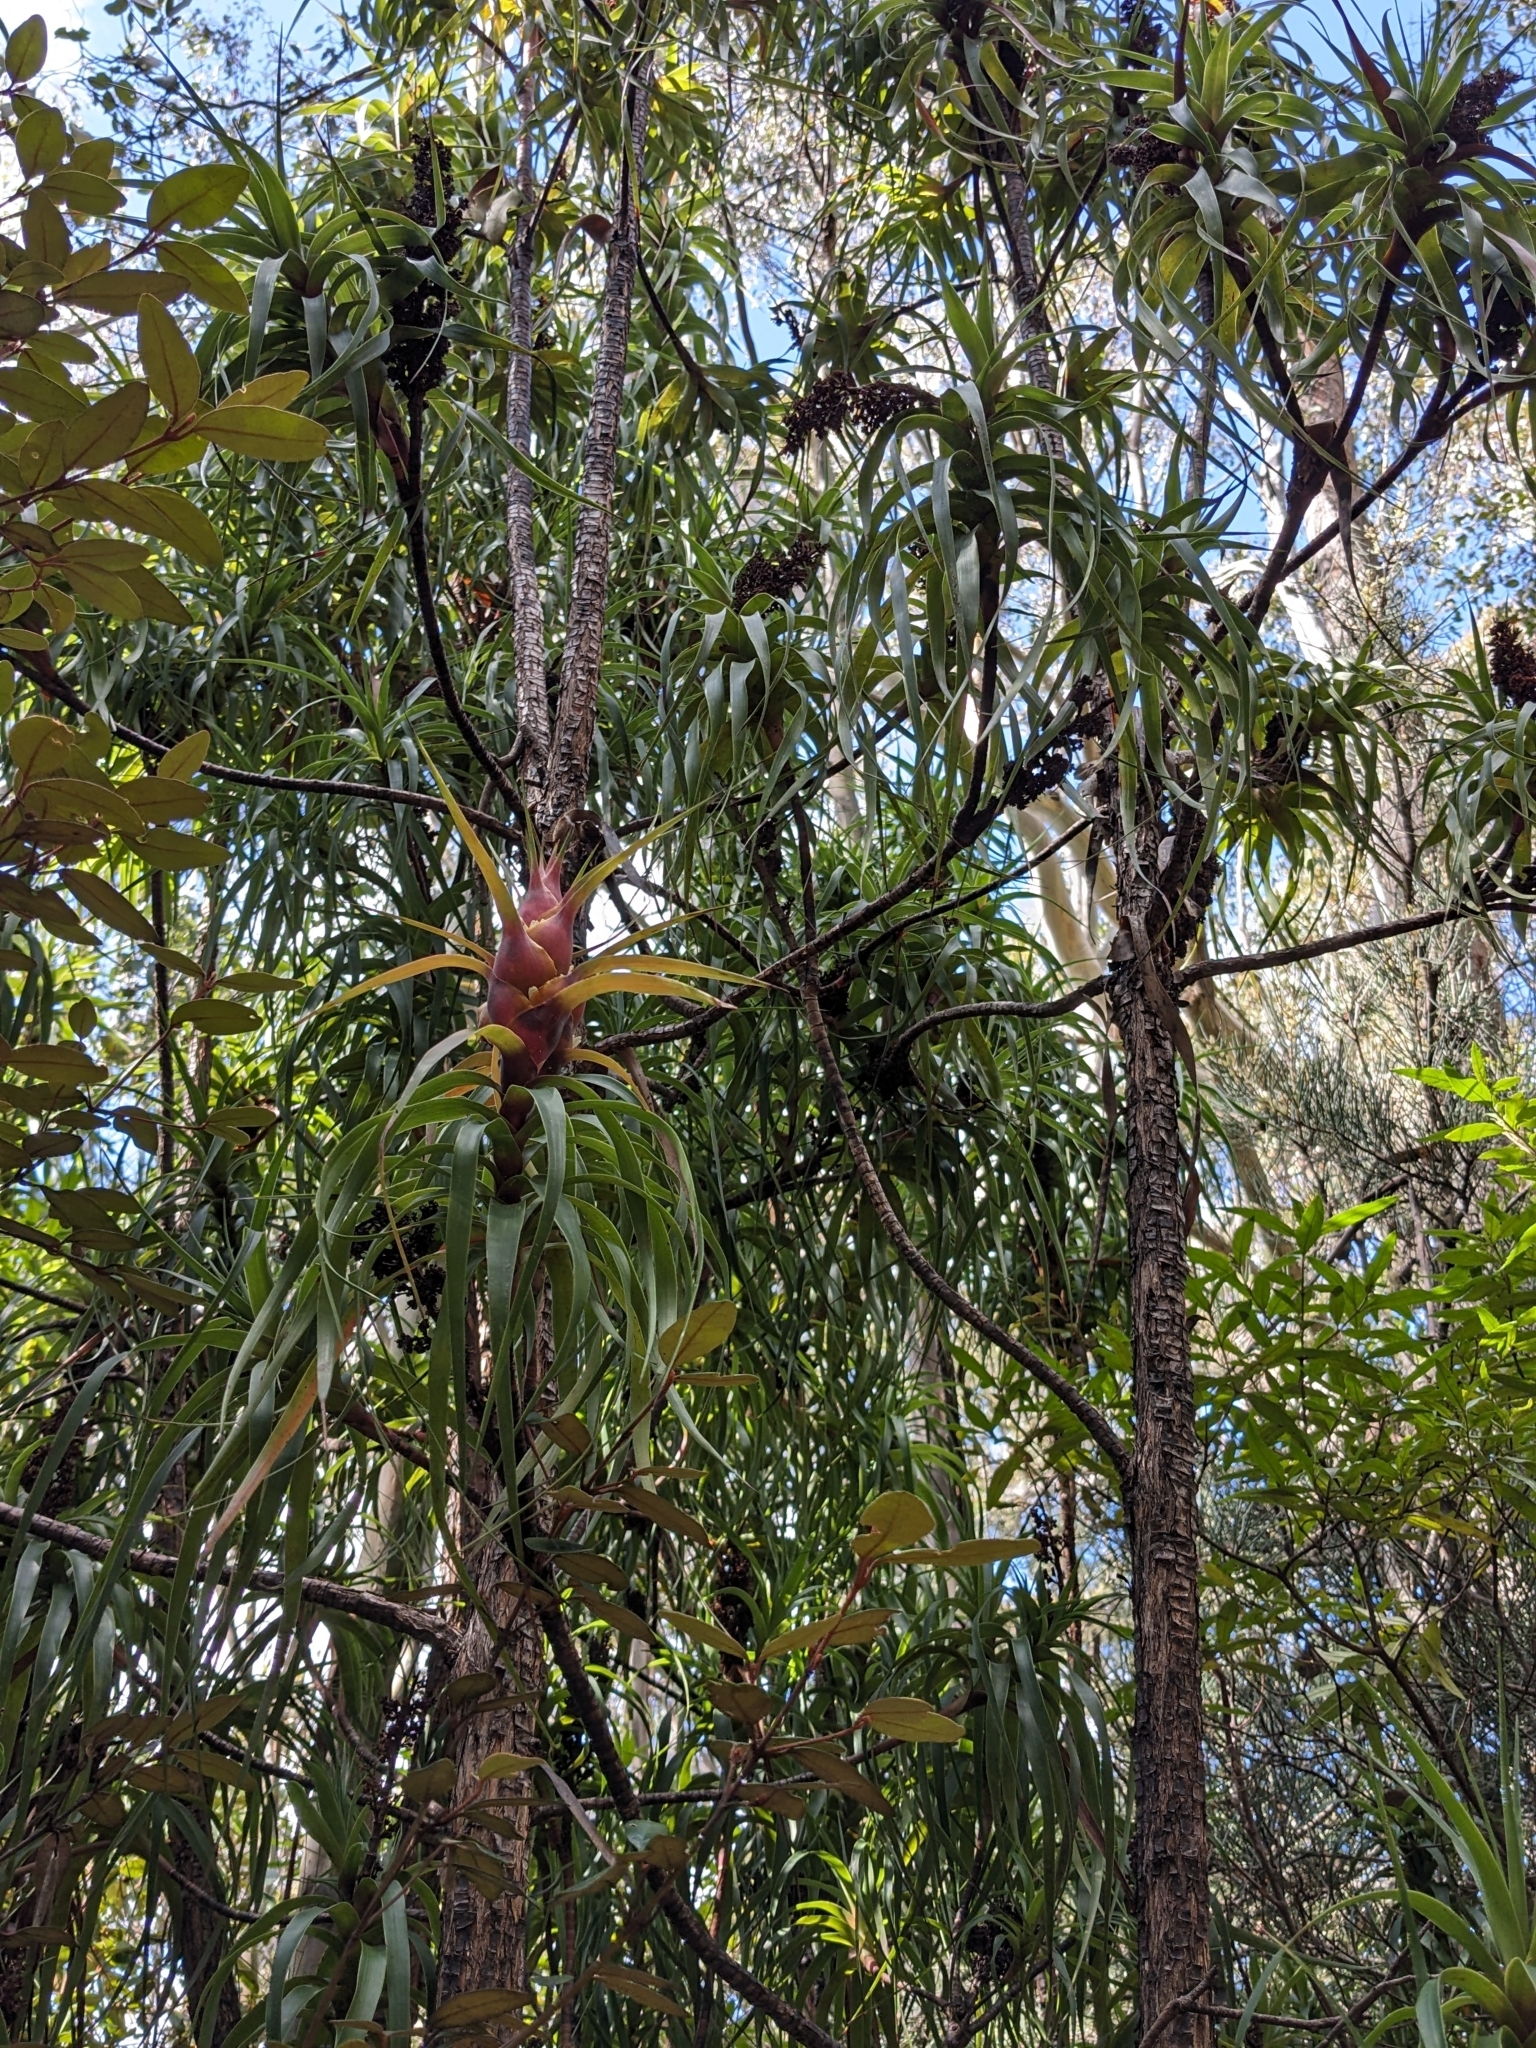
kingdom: Plantae
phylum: Tracheophyta
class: Magnoliopsida
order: Ericales
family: Ericaceae
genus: Dracophyllum
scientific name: Dracophyllum desgrazii
